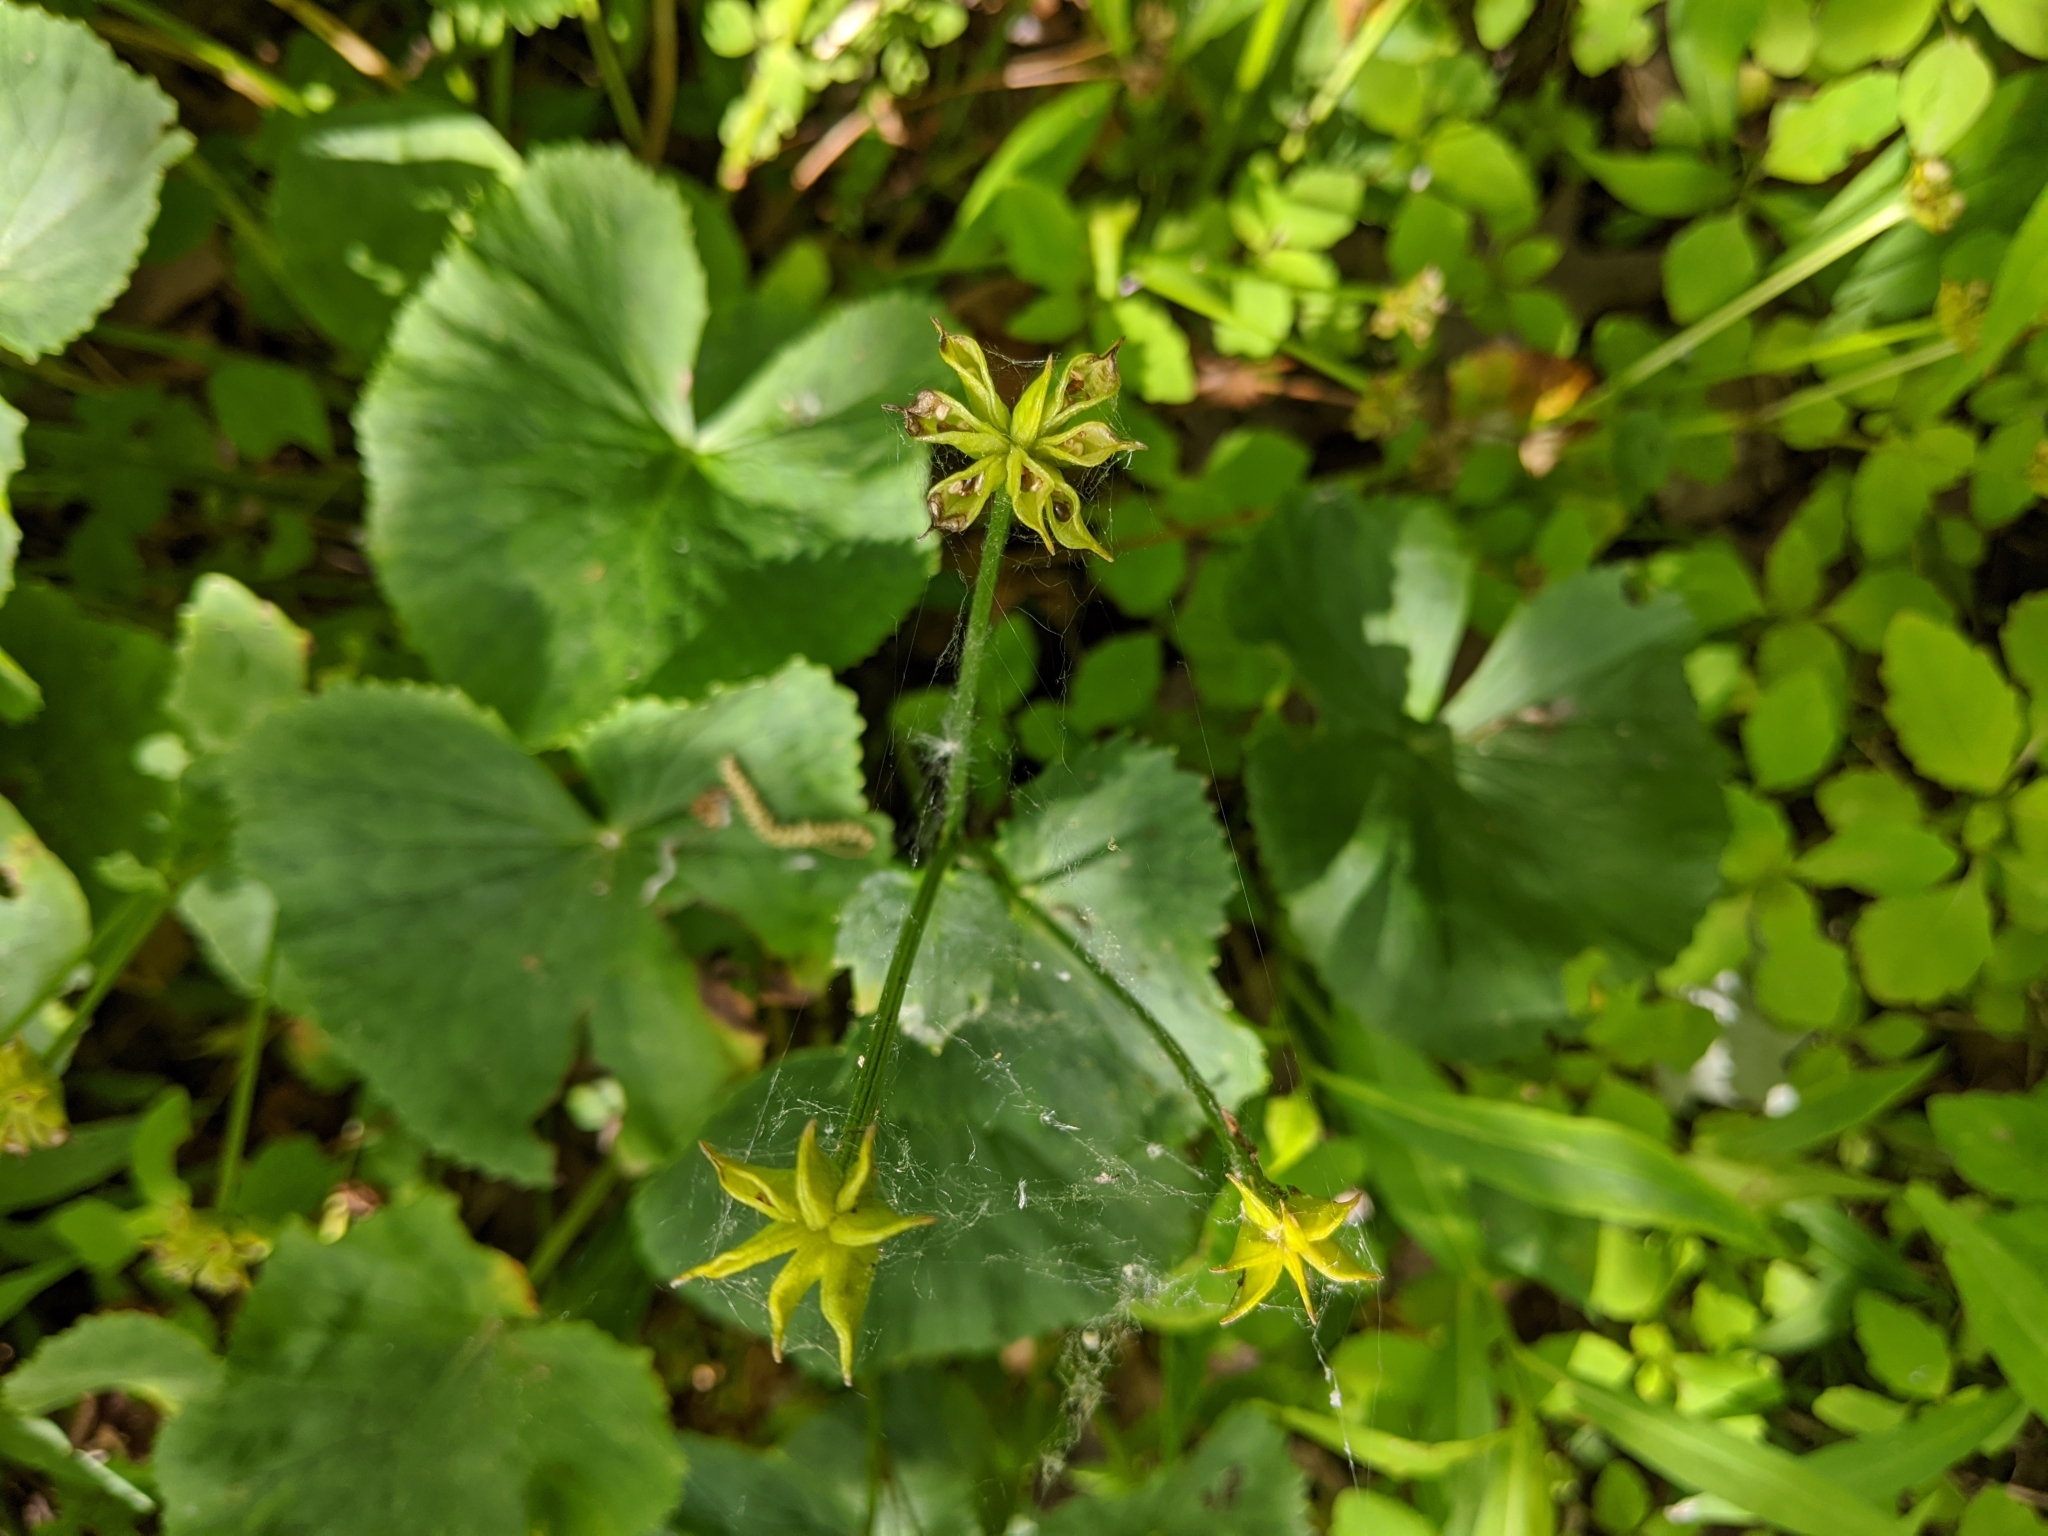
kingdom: Plantae
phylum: Tracheophyta
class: Magnoliopsida
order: Ranunculales
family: Ranunculaceae
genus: Caltha
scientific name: Caltha palustris
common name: Marsh marigold
